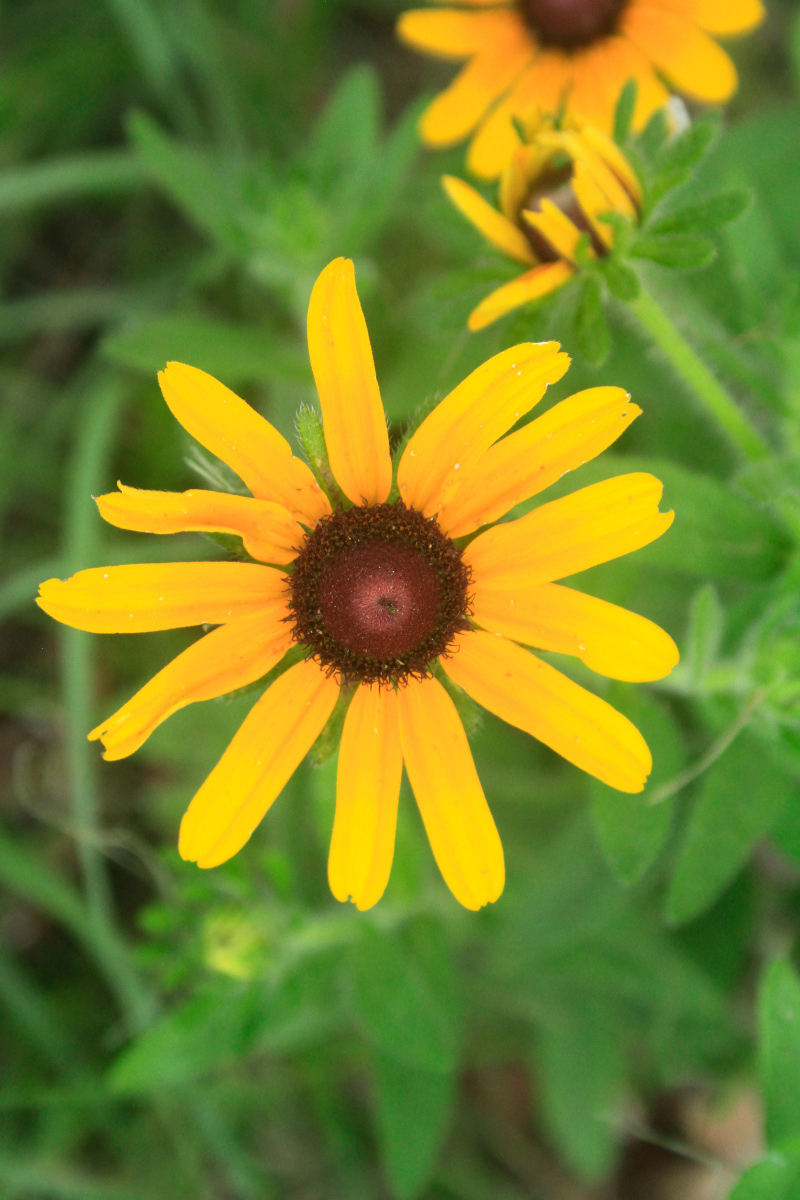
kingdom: Plantae
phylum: Tracheophyta
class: Magnoliopsida
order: Asterales
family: Asteraceae
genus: Rudbeckia
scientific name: Rudbeckia hirta
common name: Black-eyed-susan
